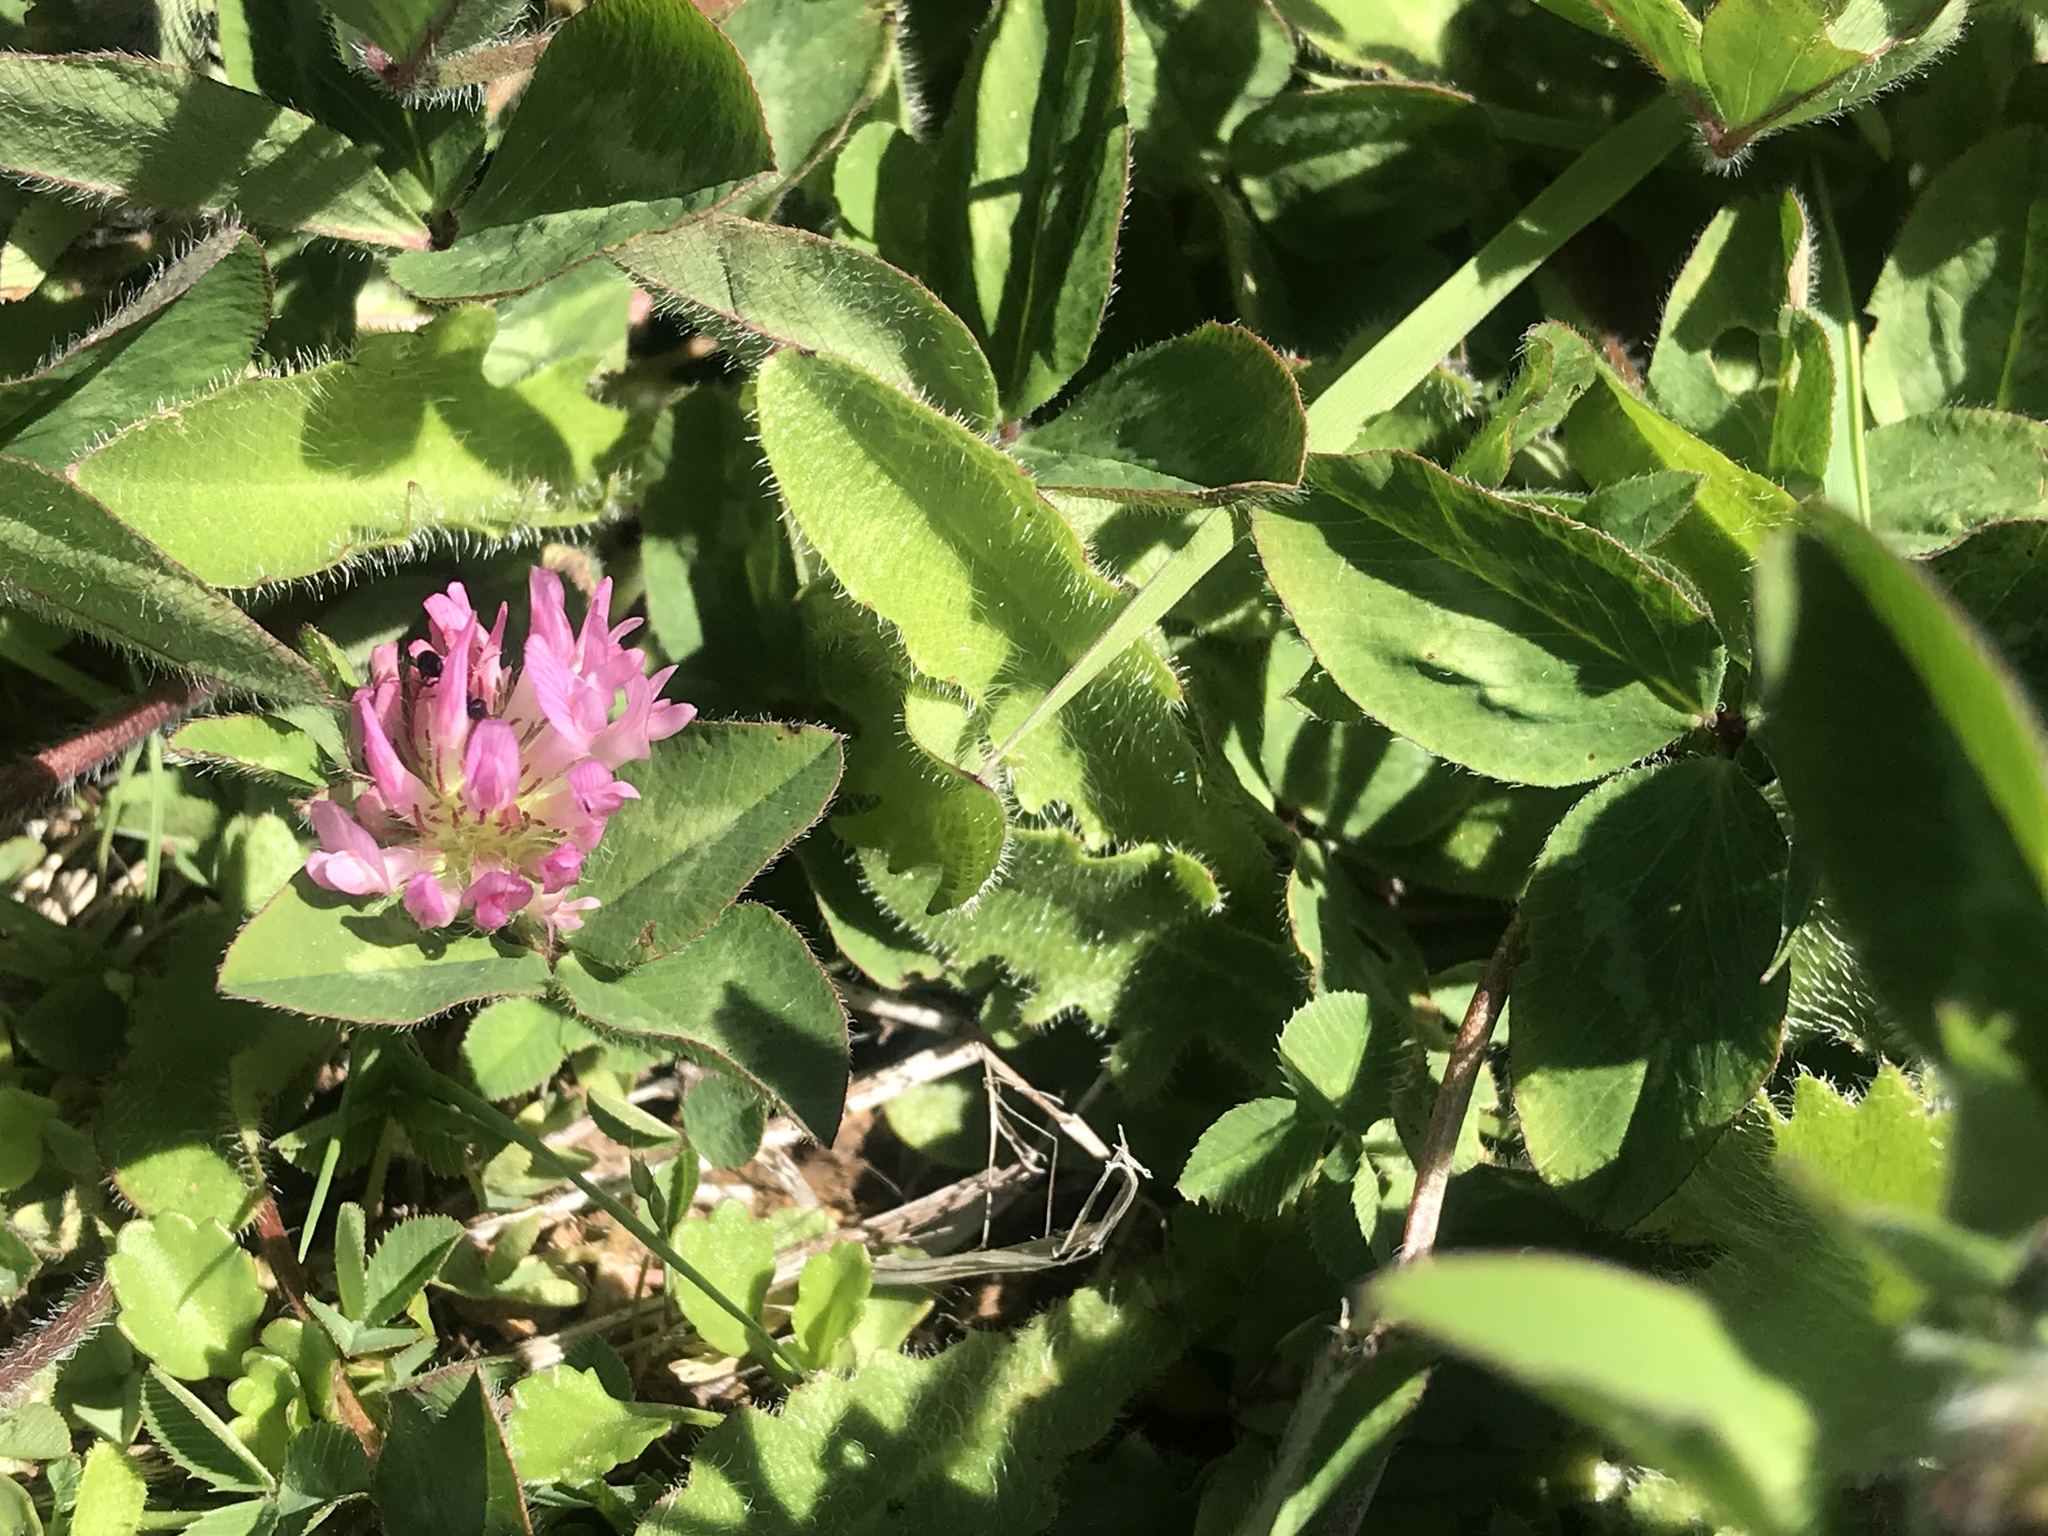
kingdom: Plantae
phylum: Tracheophyta
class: Magnoliopsida
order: Fabales
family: Fabaceae
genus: Trifolium
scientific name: Trifolium pratense
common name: Red clover
